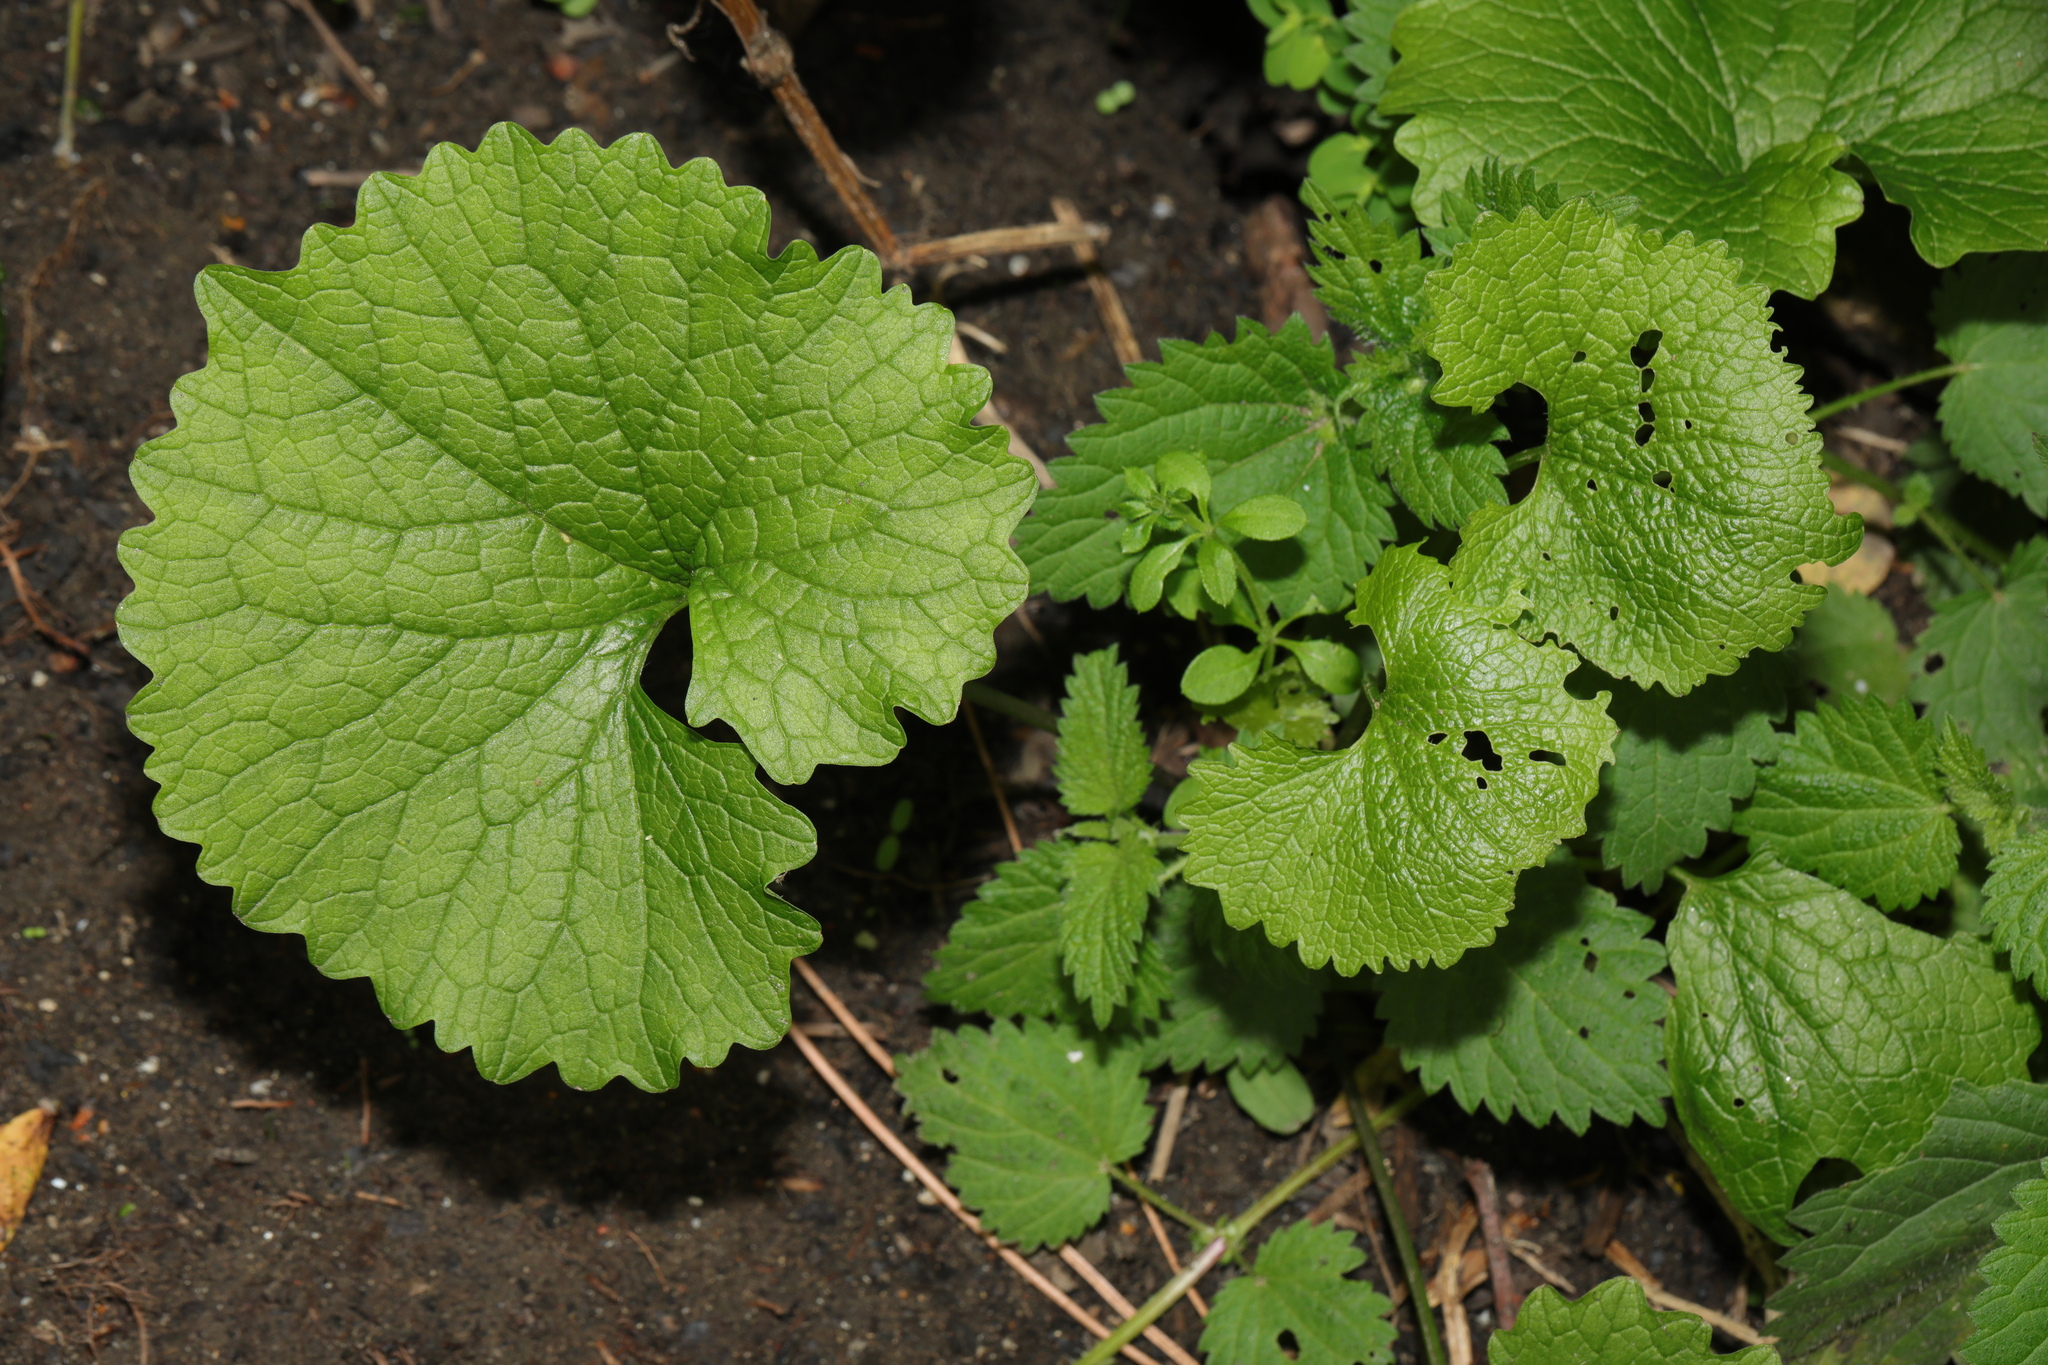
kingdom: Plantae
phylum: Tracheophyta
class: Magnoliopsida
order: Brassicales
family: Brassicaceae
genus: Alliaria
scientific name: Alliaria petiolata
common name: Garlic mustard
